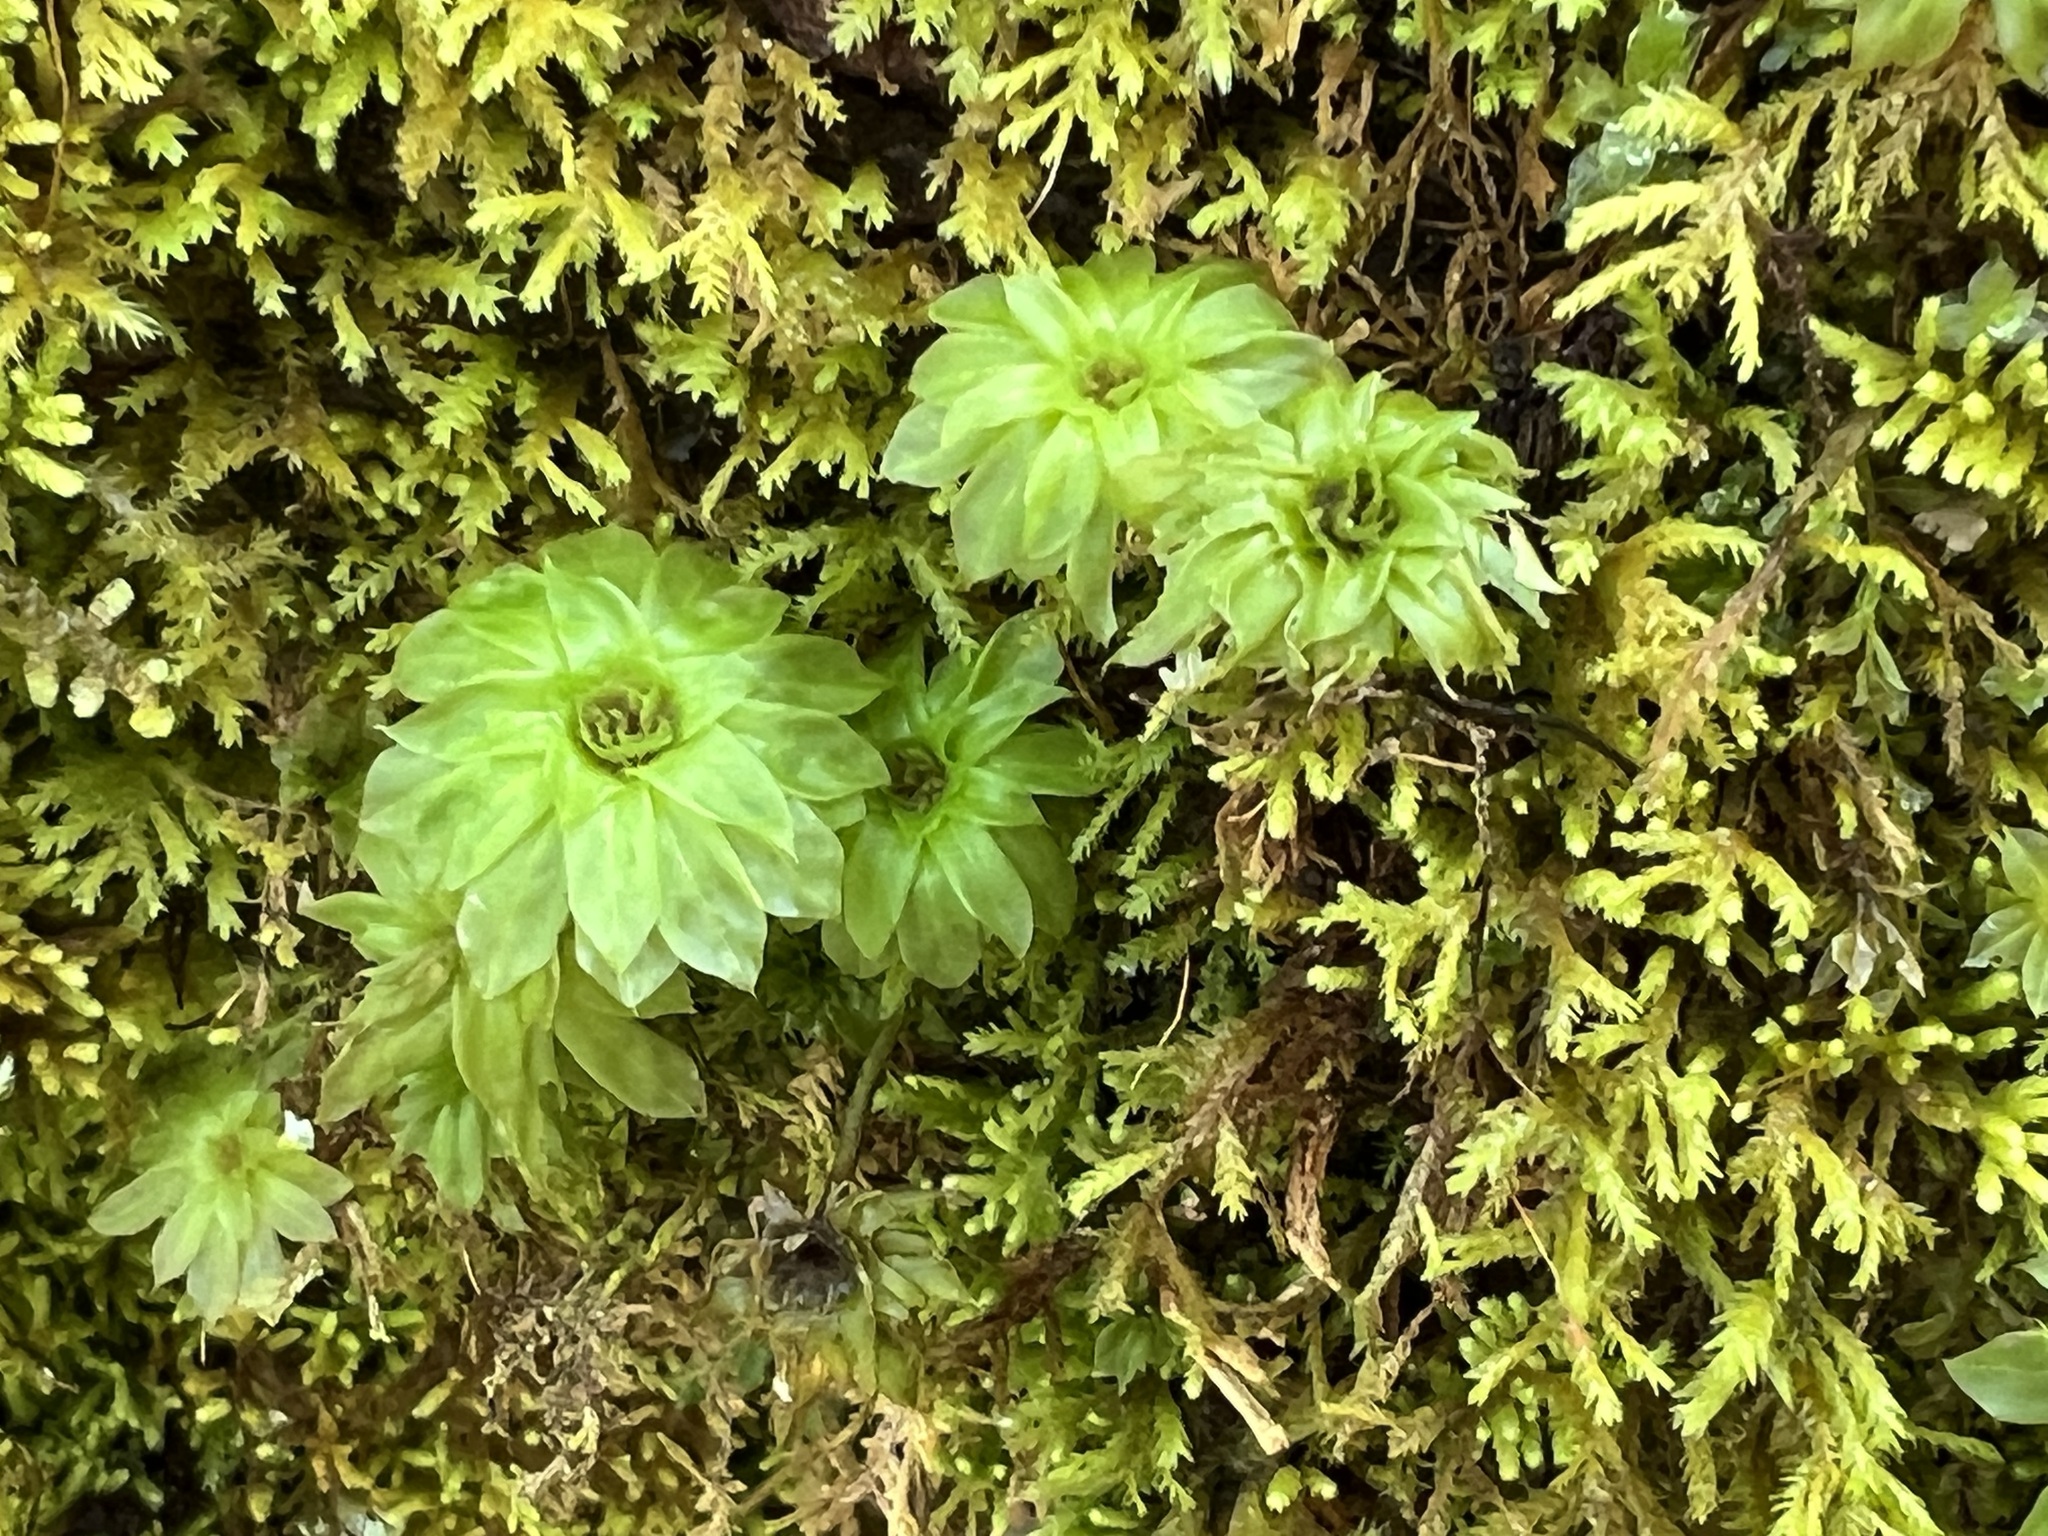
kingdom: Plantae
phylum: Bryophyta
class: Bryopsida
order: Bryales
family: Bryaceae
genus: Rhodobryum
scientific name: Rhodobryum ontariense
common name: Ontario rhodobryum moss
